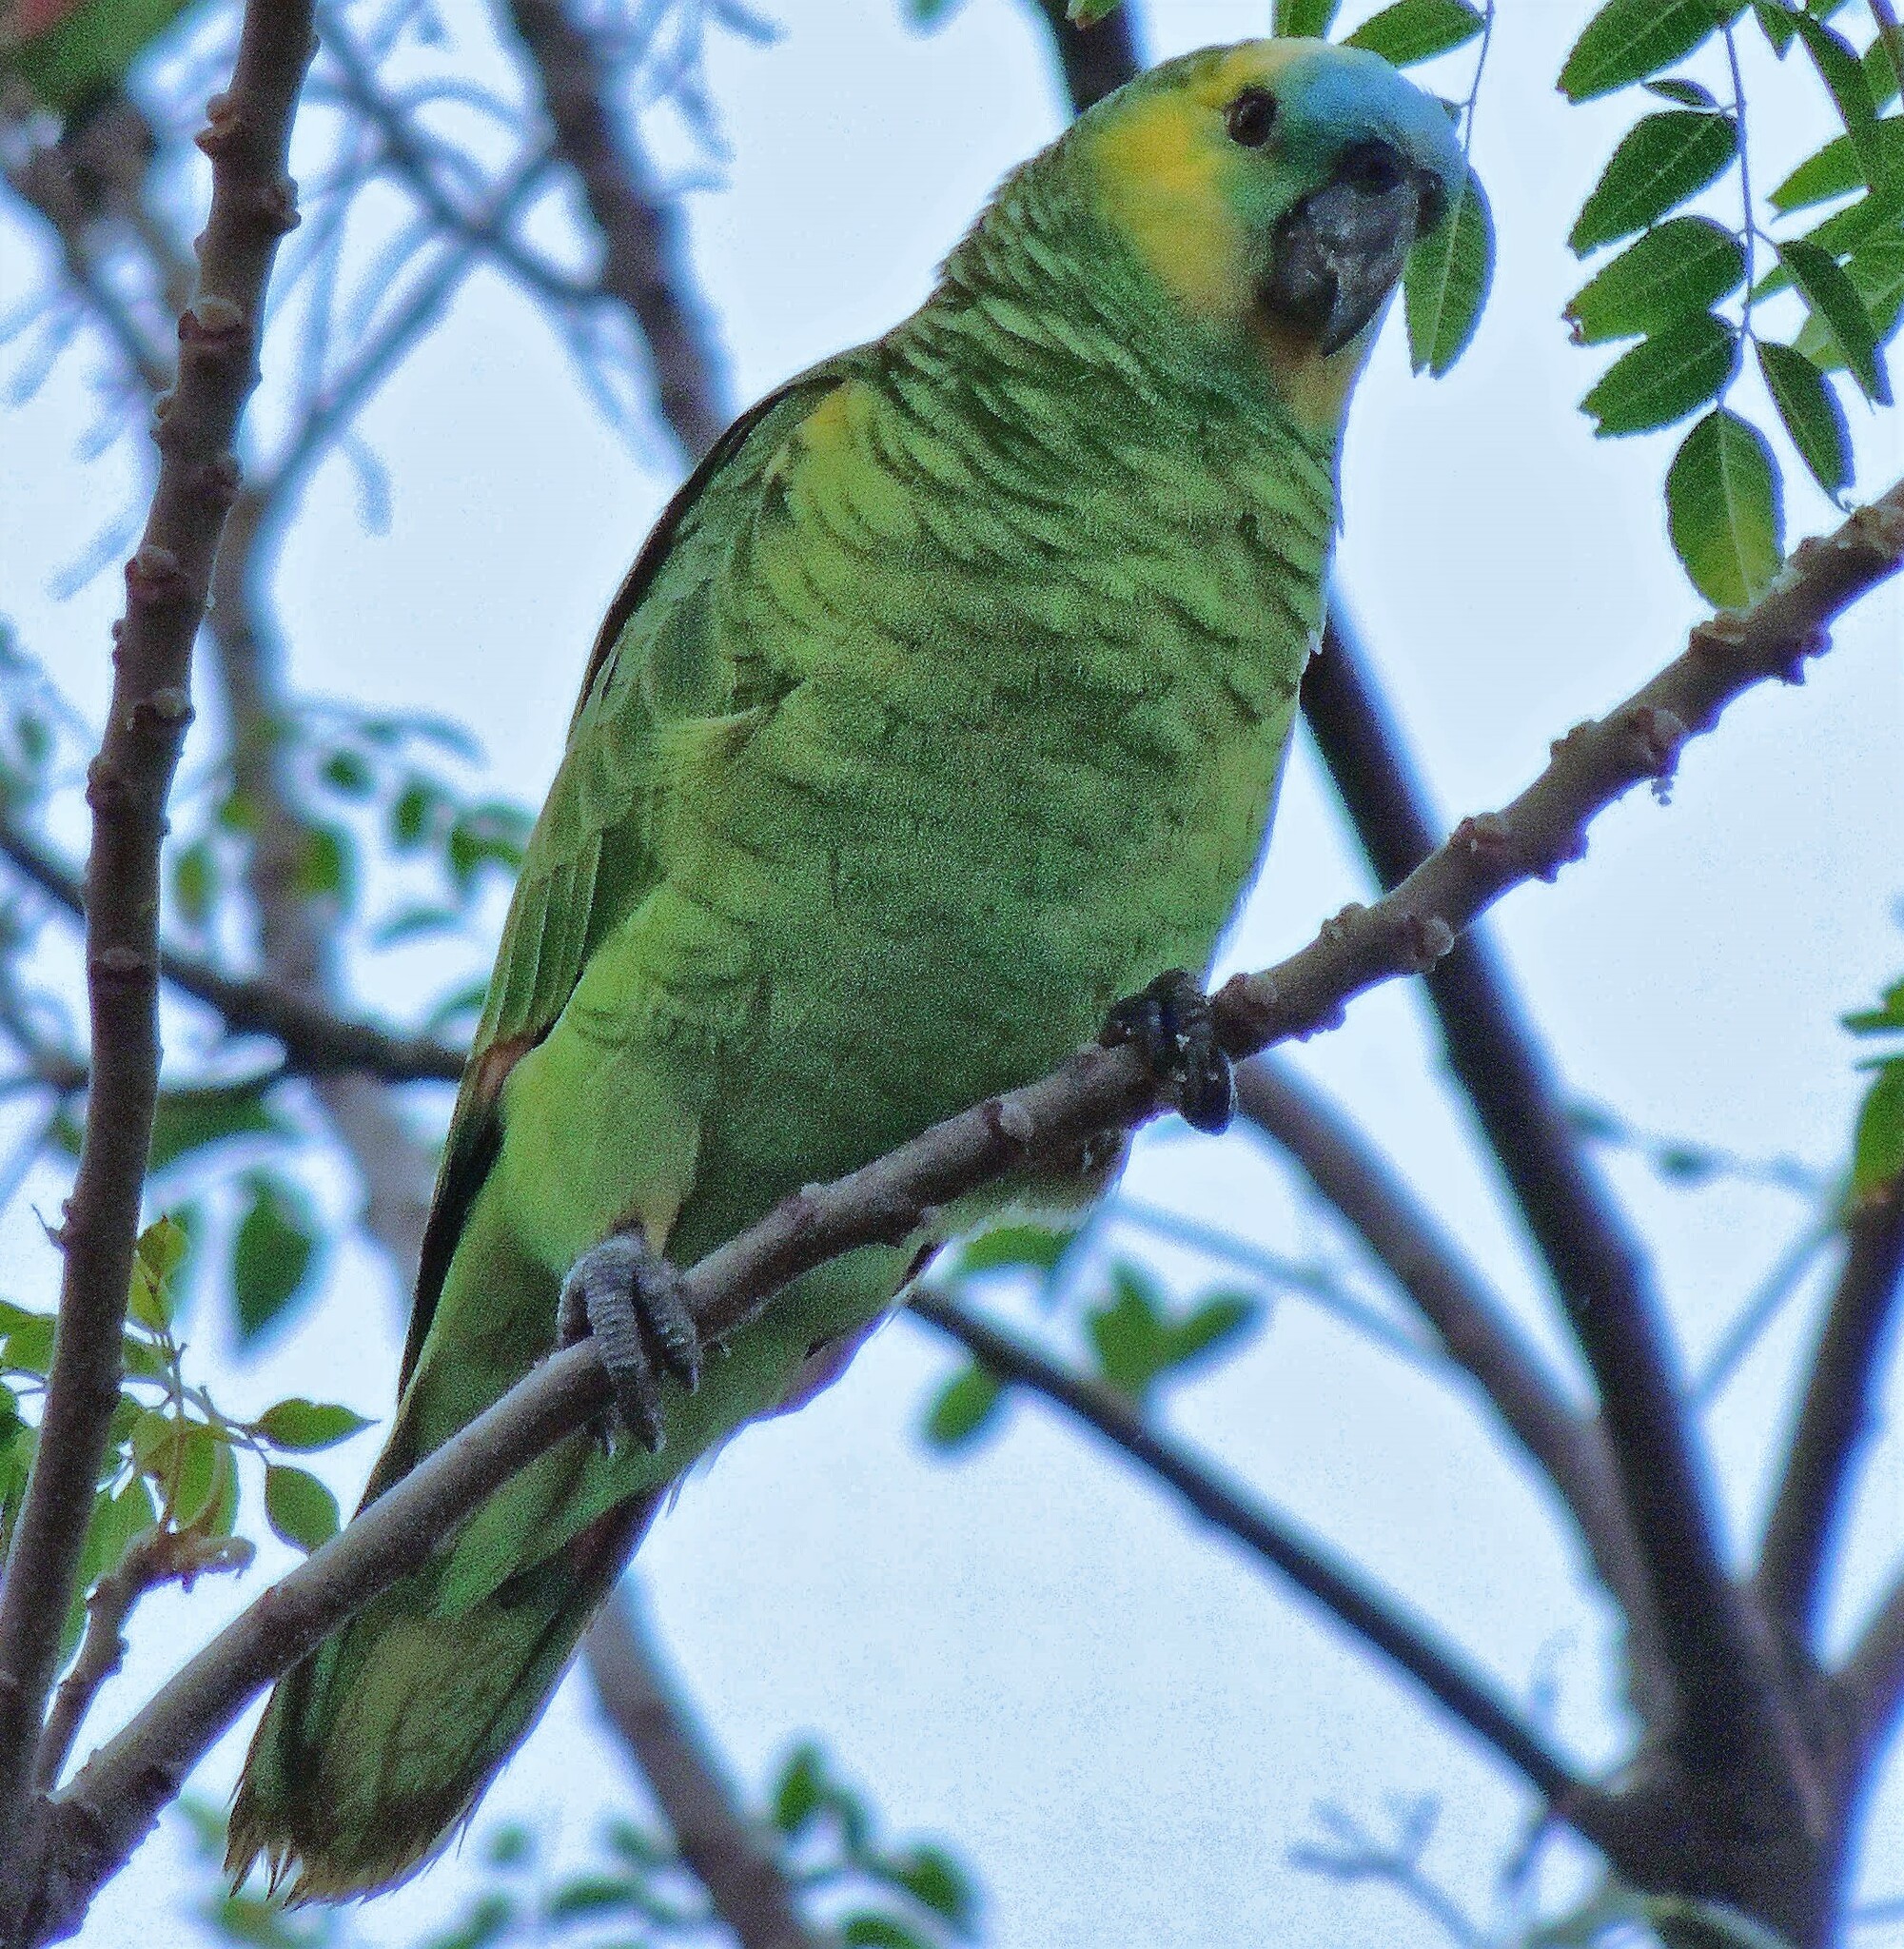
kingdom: Animalia
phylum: Chordata
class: Aves
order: Psittaciformes
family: Psittacidae
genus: Amazona
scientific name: Amazona aestiva
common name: Turquoise-fronted amazon
